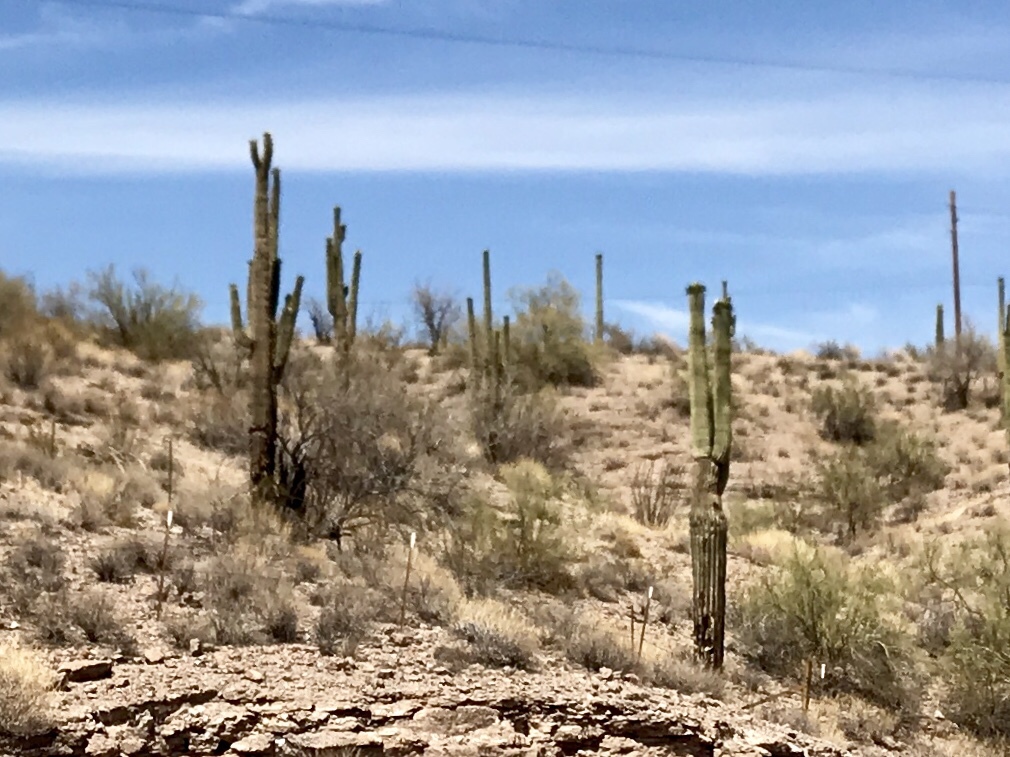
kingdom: Plantae
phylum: Tracheophyta
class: Magnoliopsida
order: Caryophyllales
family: Cactaceae
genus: Carnegiea
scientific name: Carnegiea gigantea
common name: Saguaro
